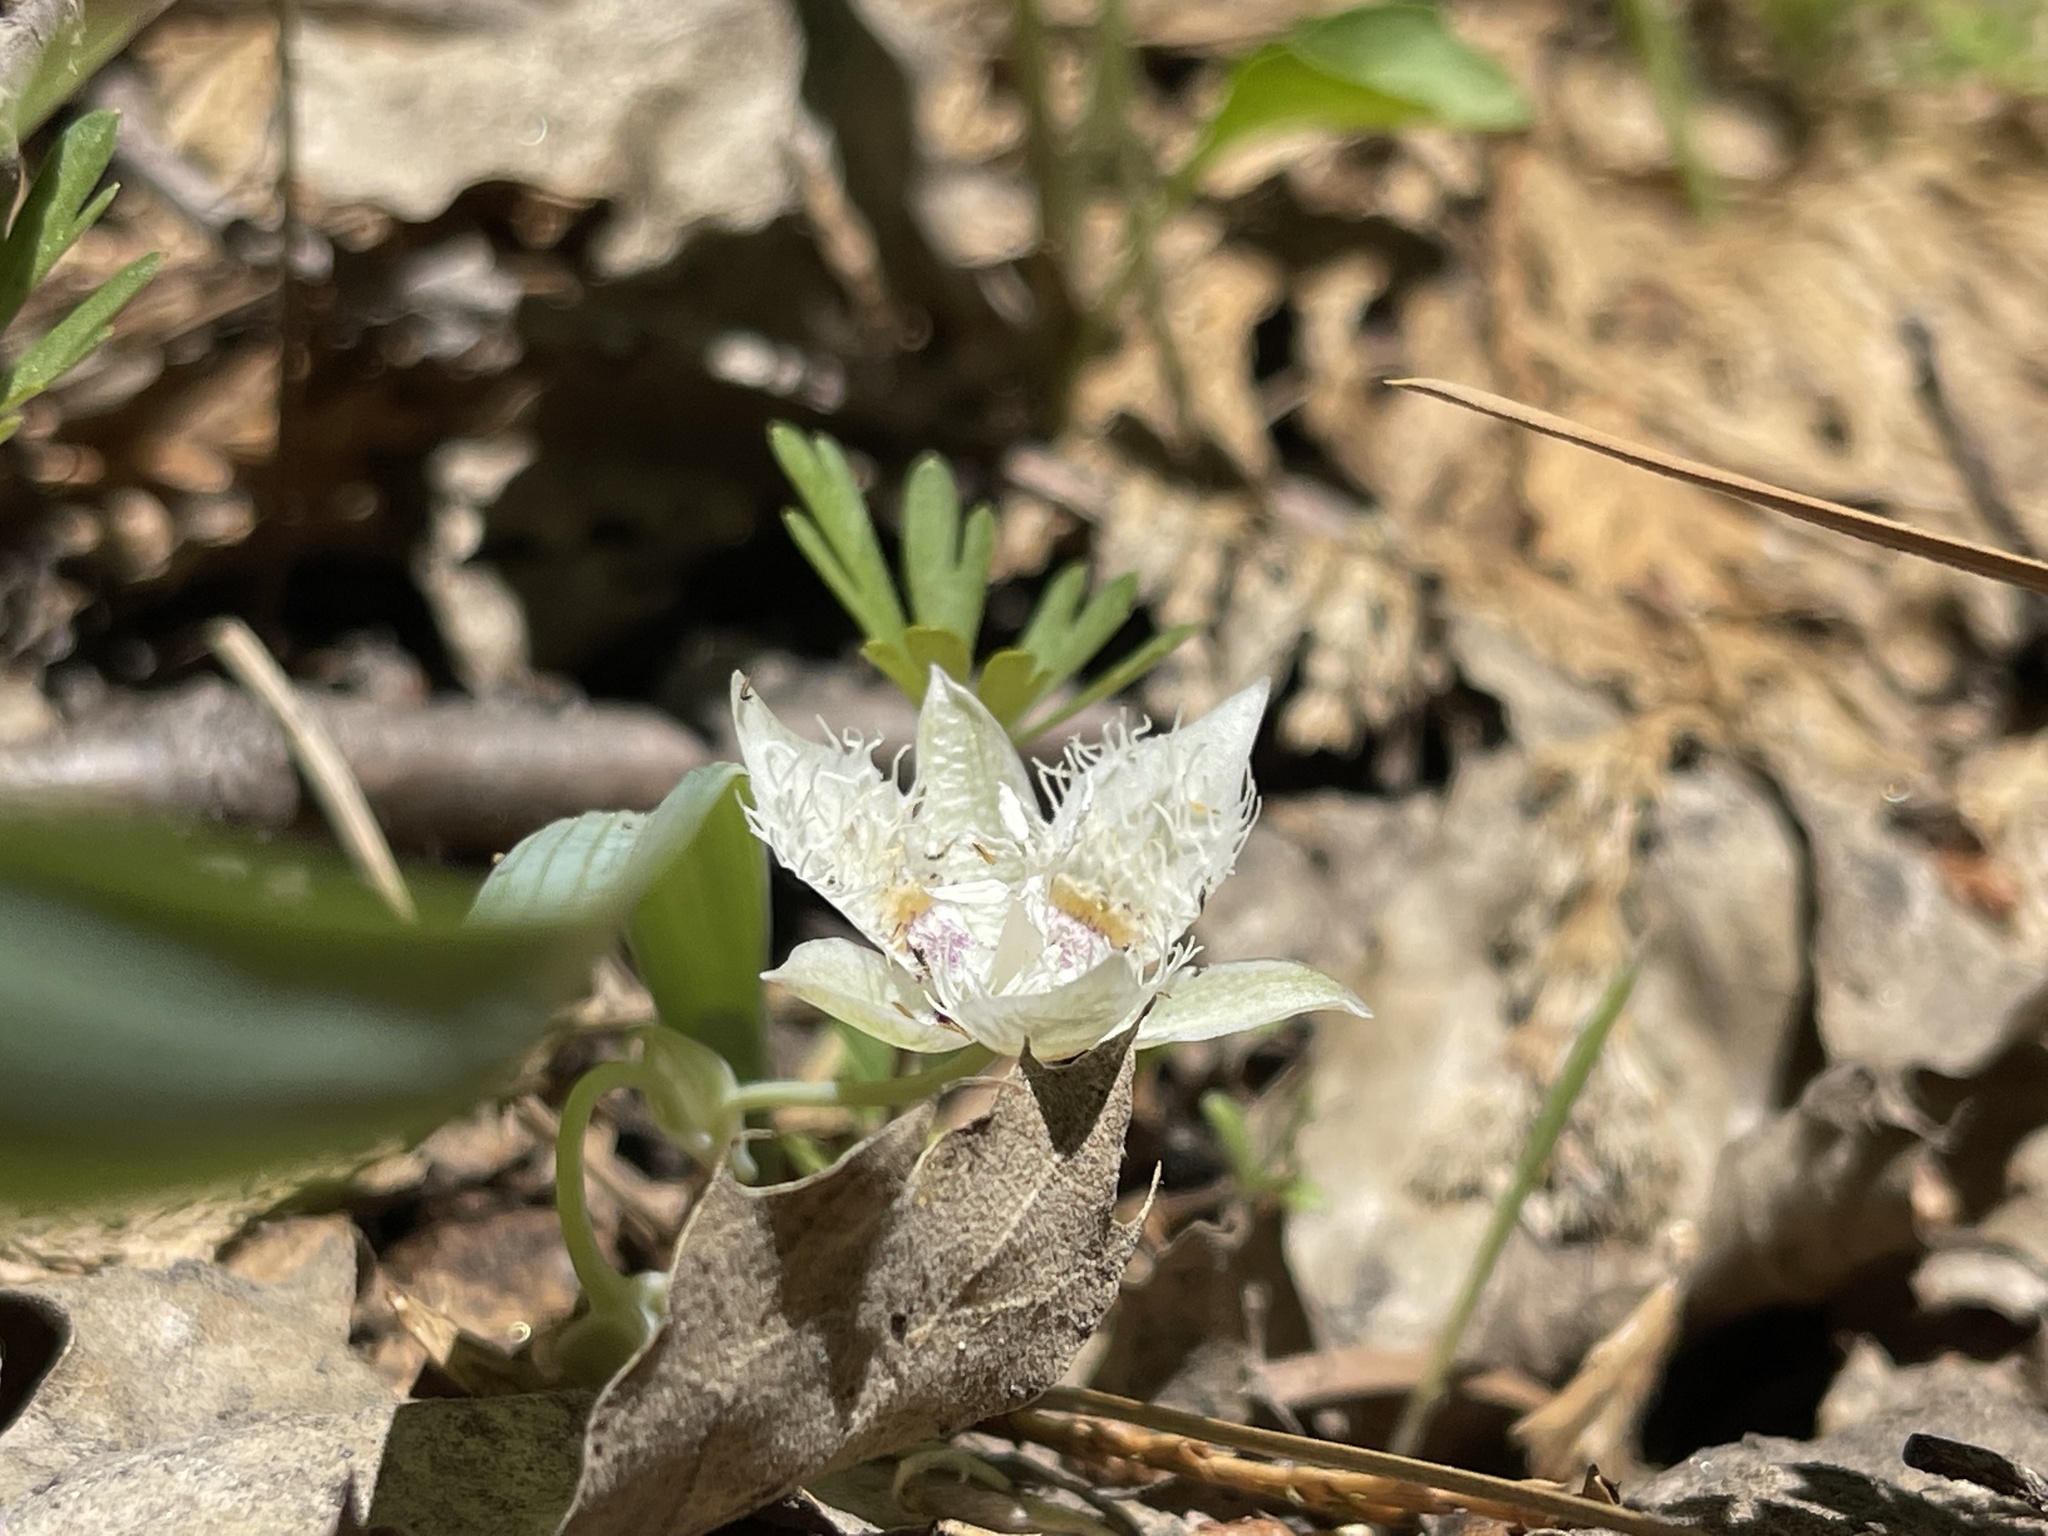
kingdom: Plantae
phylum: Tracheophyta
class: Liliopsida
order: Liliales
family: Liliaceae
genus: Calochortus
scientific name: Calochortus westonii
